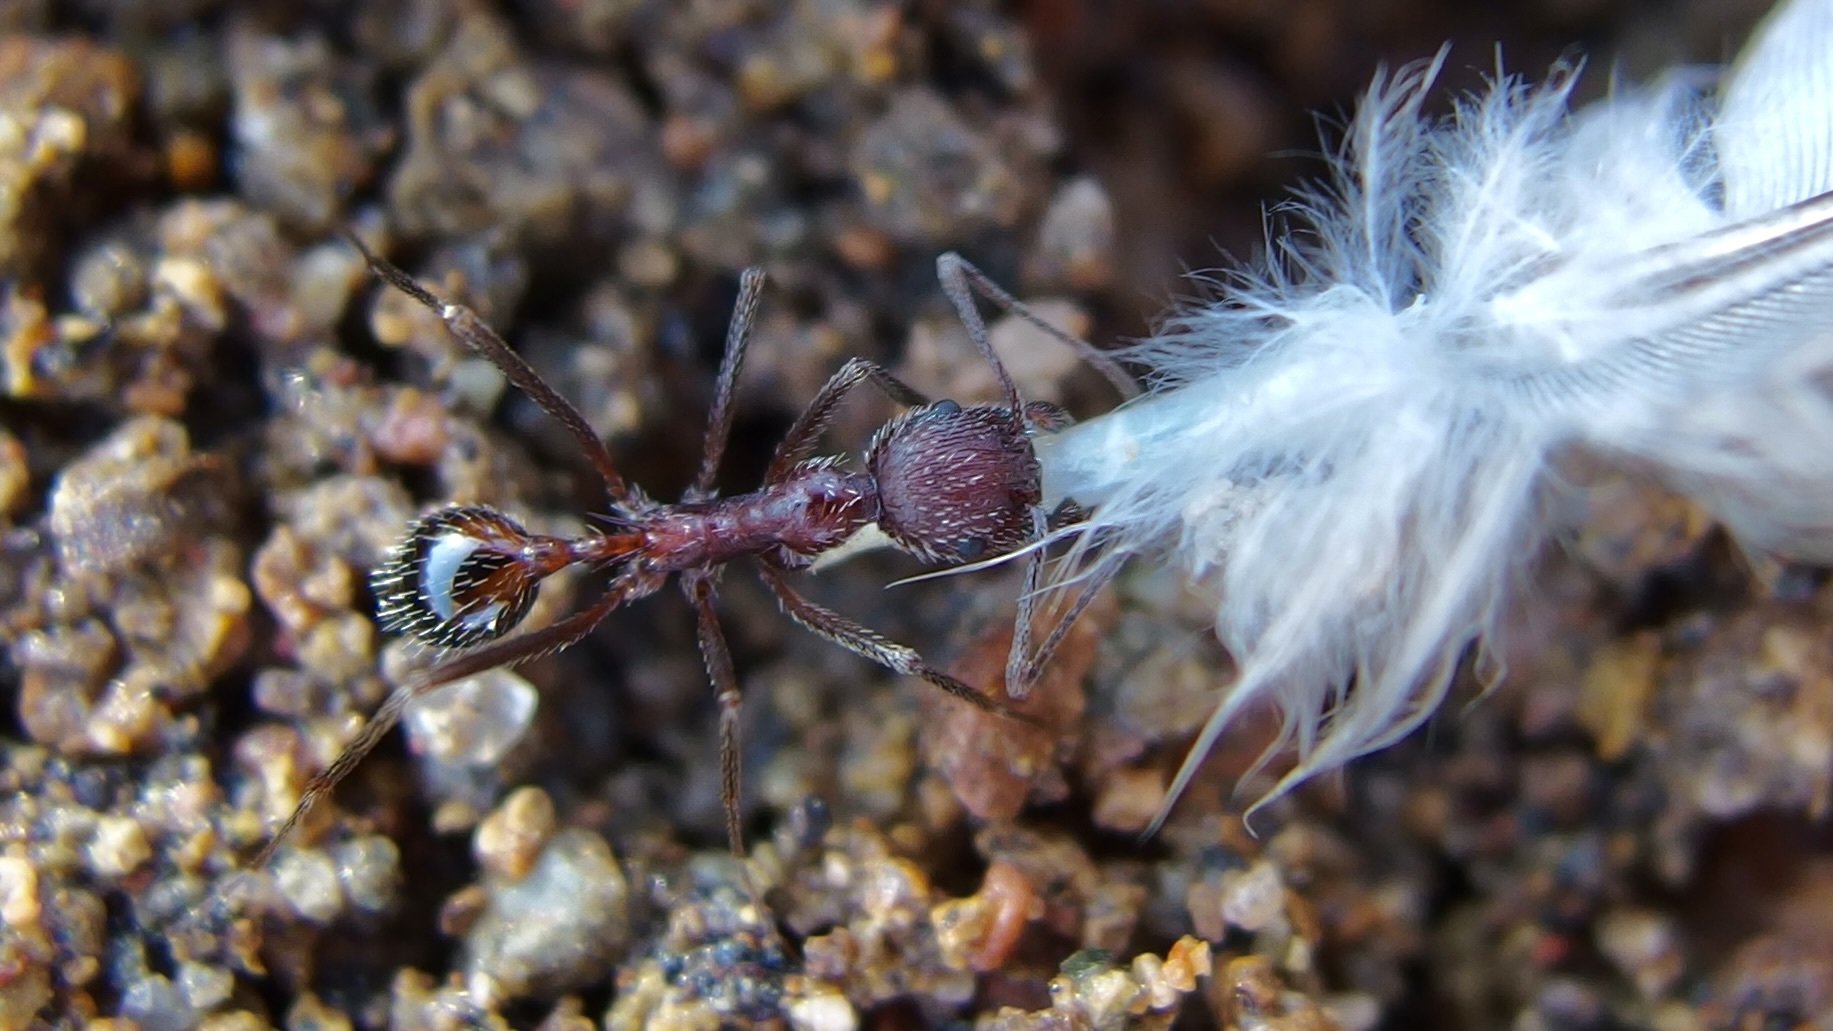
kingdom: Animalia
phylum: Arthropoda
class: Insecta
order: Hymenoptera
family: Formicidae
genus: Novomessor
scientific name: Novomessor albisetosa
